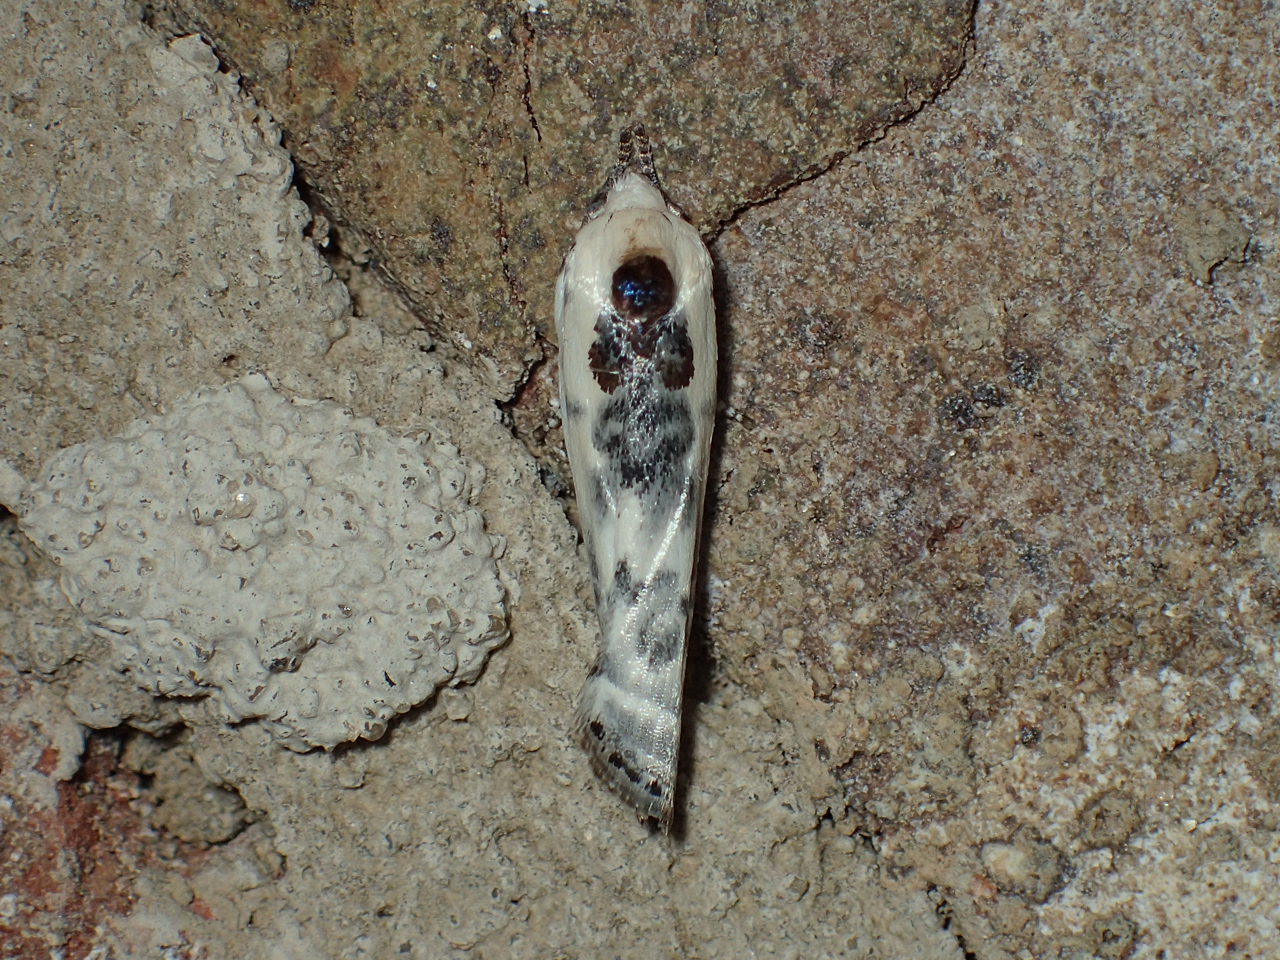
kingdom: Animalia
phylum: Arthropoda
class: Insecta
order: Lepidoptera
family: Depressariidae
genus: Antaeotricha
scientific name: Antaeotricha
